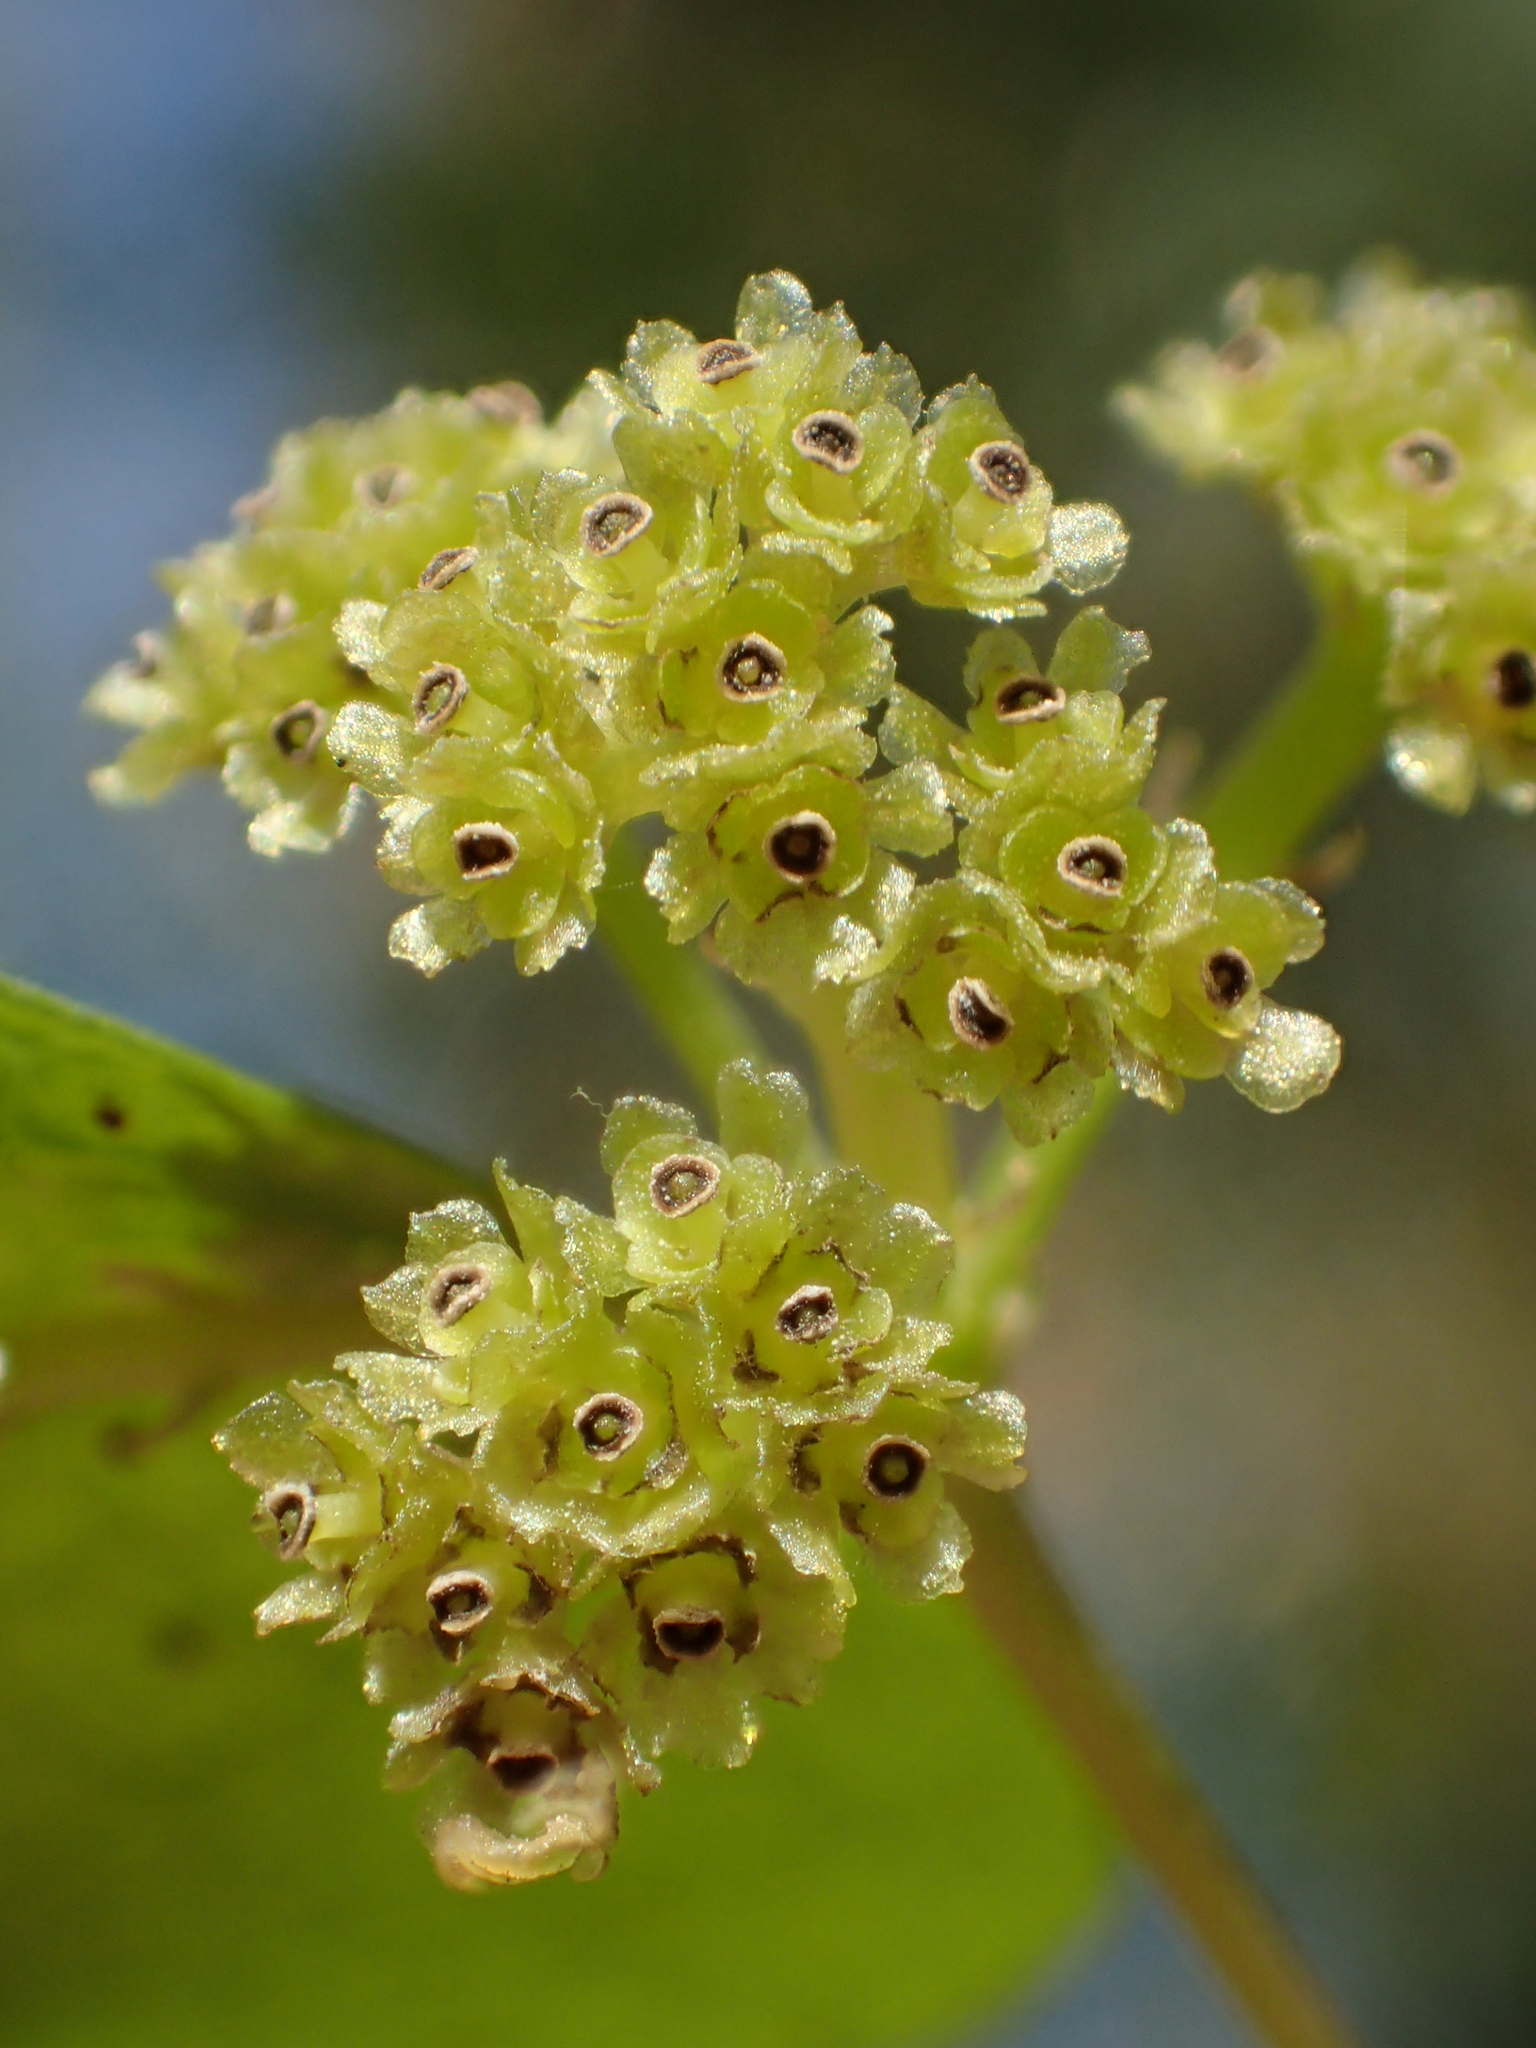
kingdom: Plantae
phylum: Tracheophyta
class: Magnoliopsida
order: Ranunculales
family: Menispermaceae
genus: Stephania
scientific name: Stephania cephalantha
